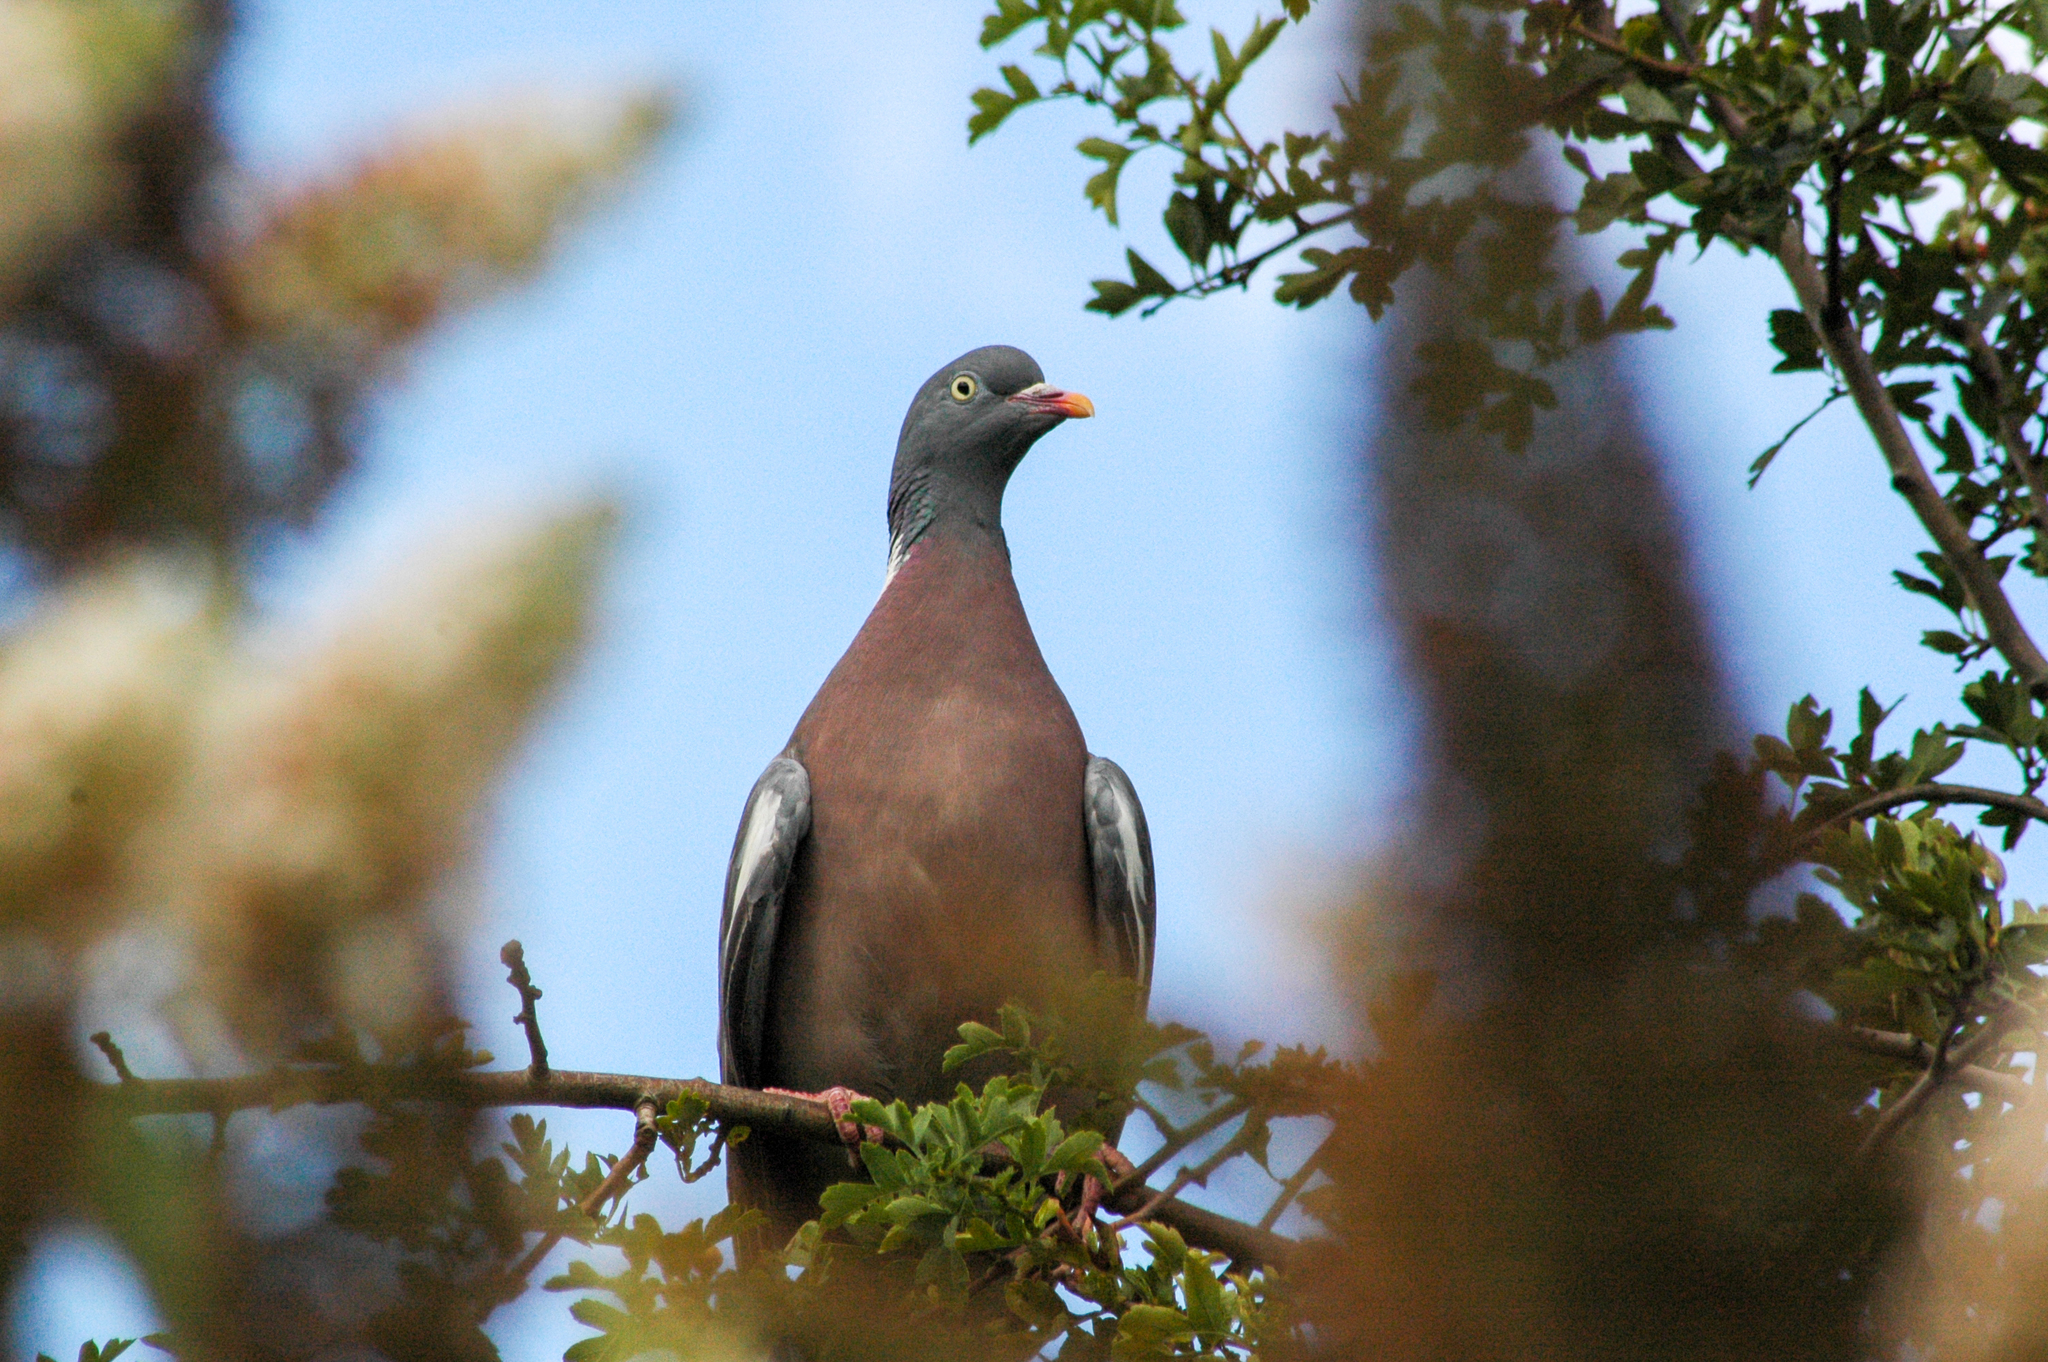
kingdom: Animalia
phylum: Chordata
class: Aves
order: Columbiformes
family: Columbidae
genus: Columba
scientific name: Columba palumbus
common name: Common wood pigeon
